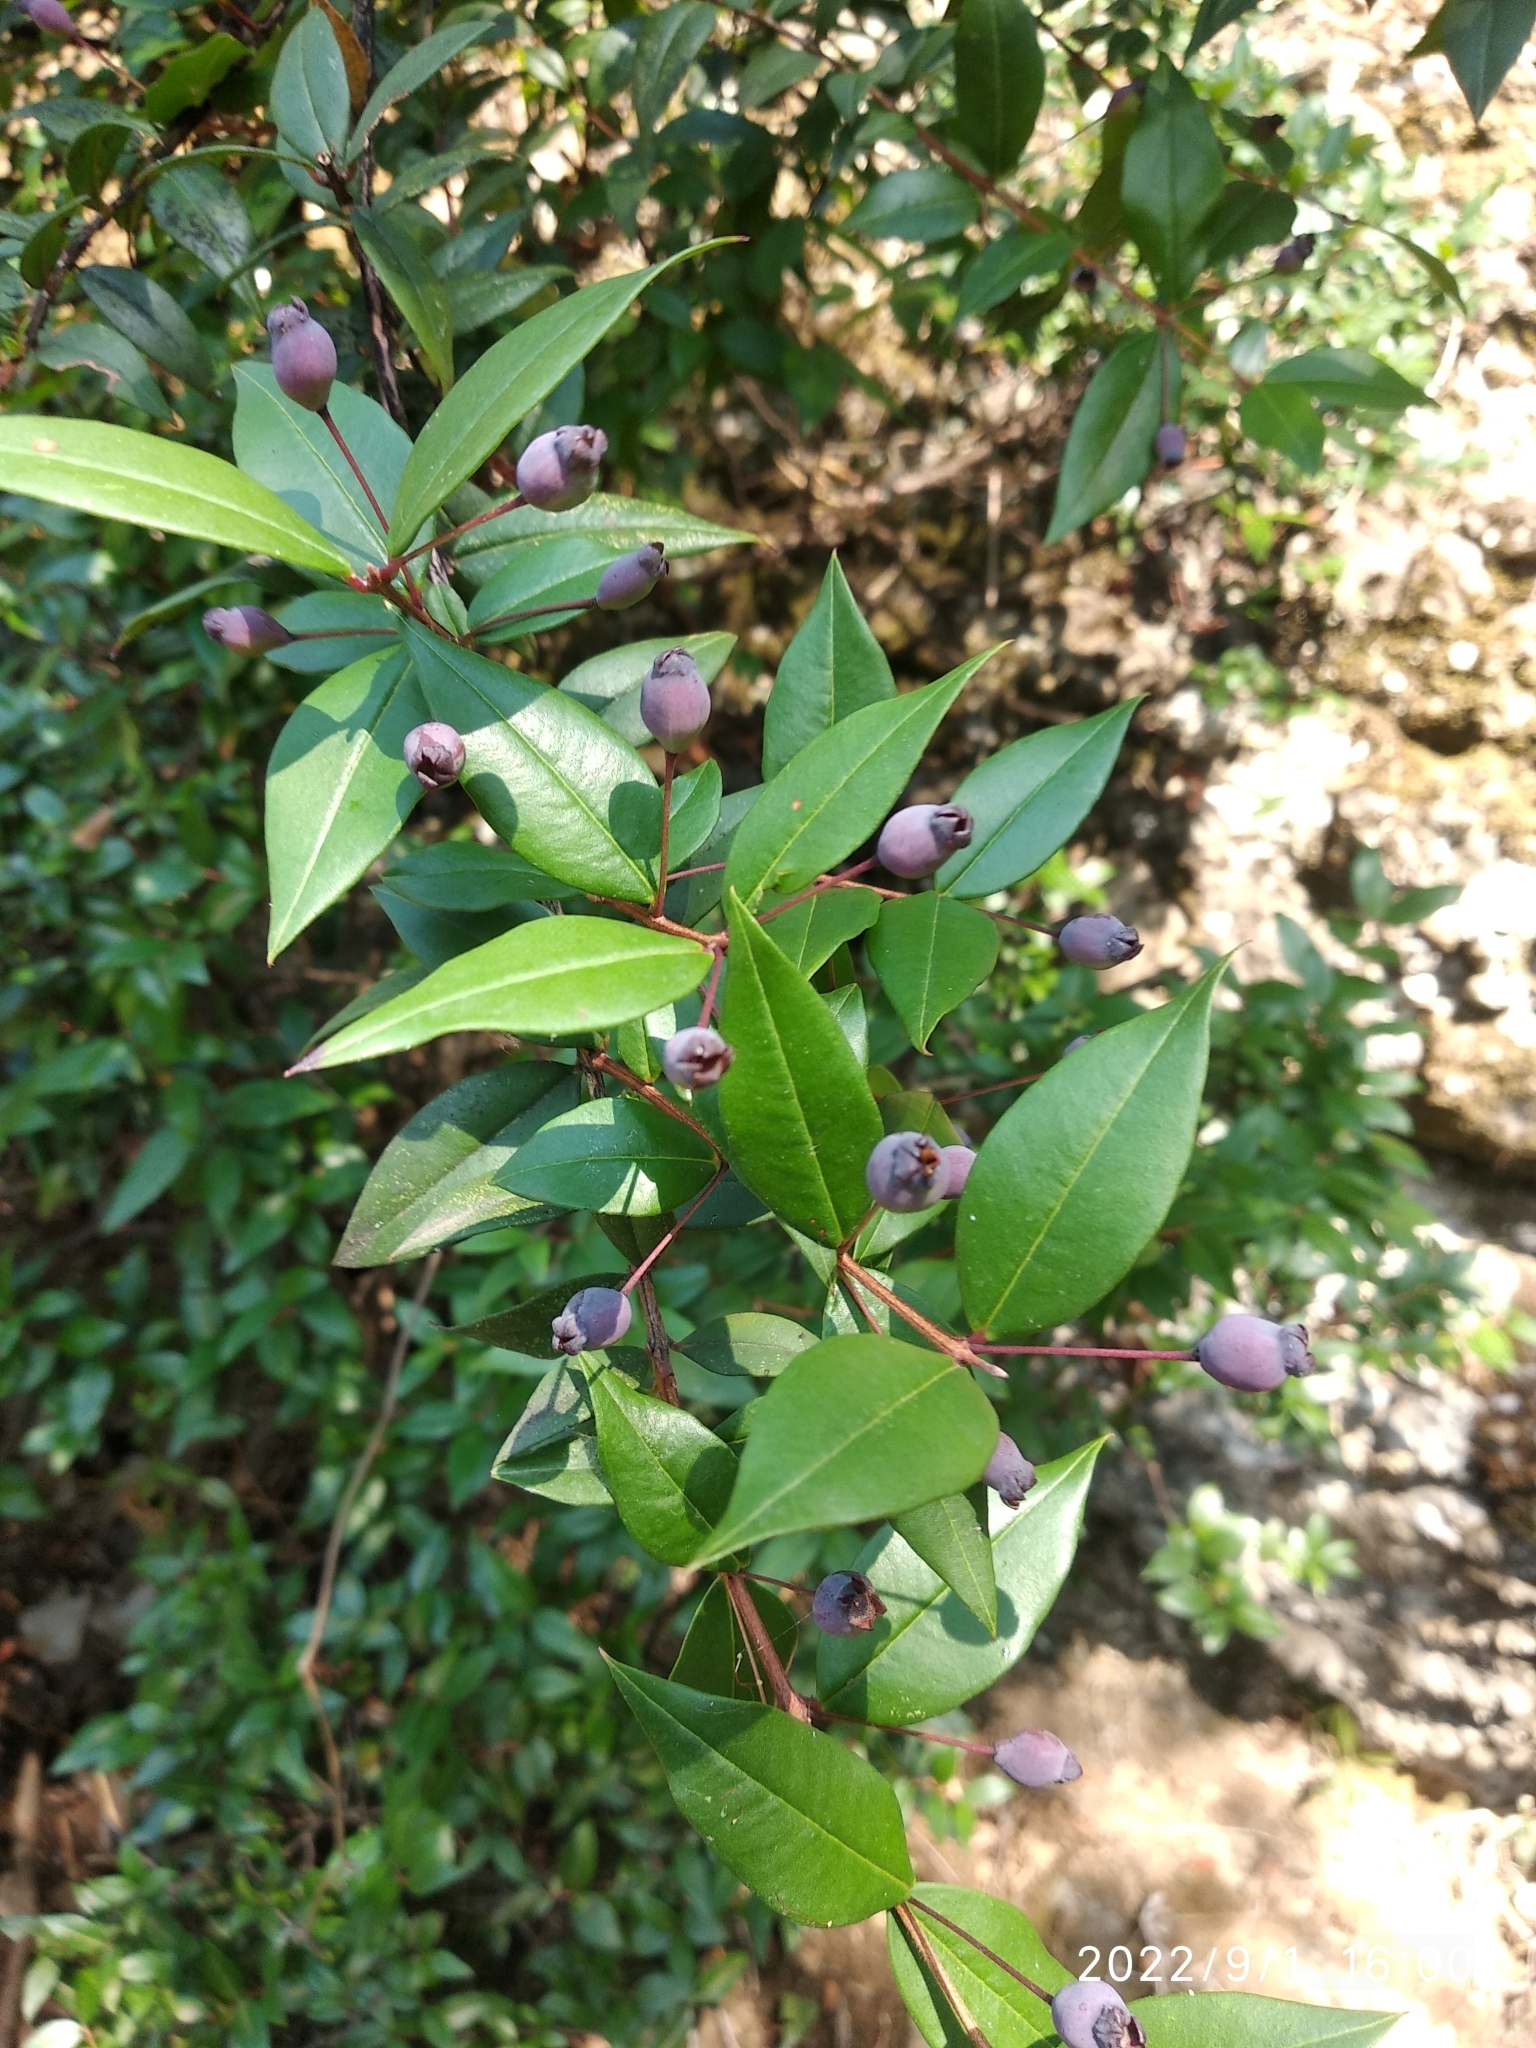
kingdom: Plantae
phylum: Tracheophyta
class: Magnoliopsida
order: Myrtales
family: Myrtaceae
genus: Myrtus
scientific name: Myrtus communis
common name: Myrtle
